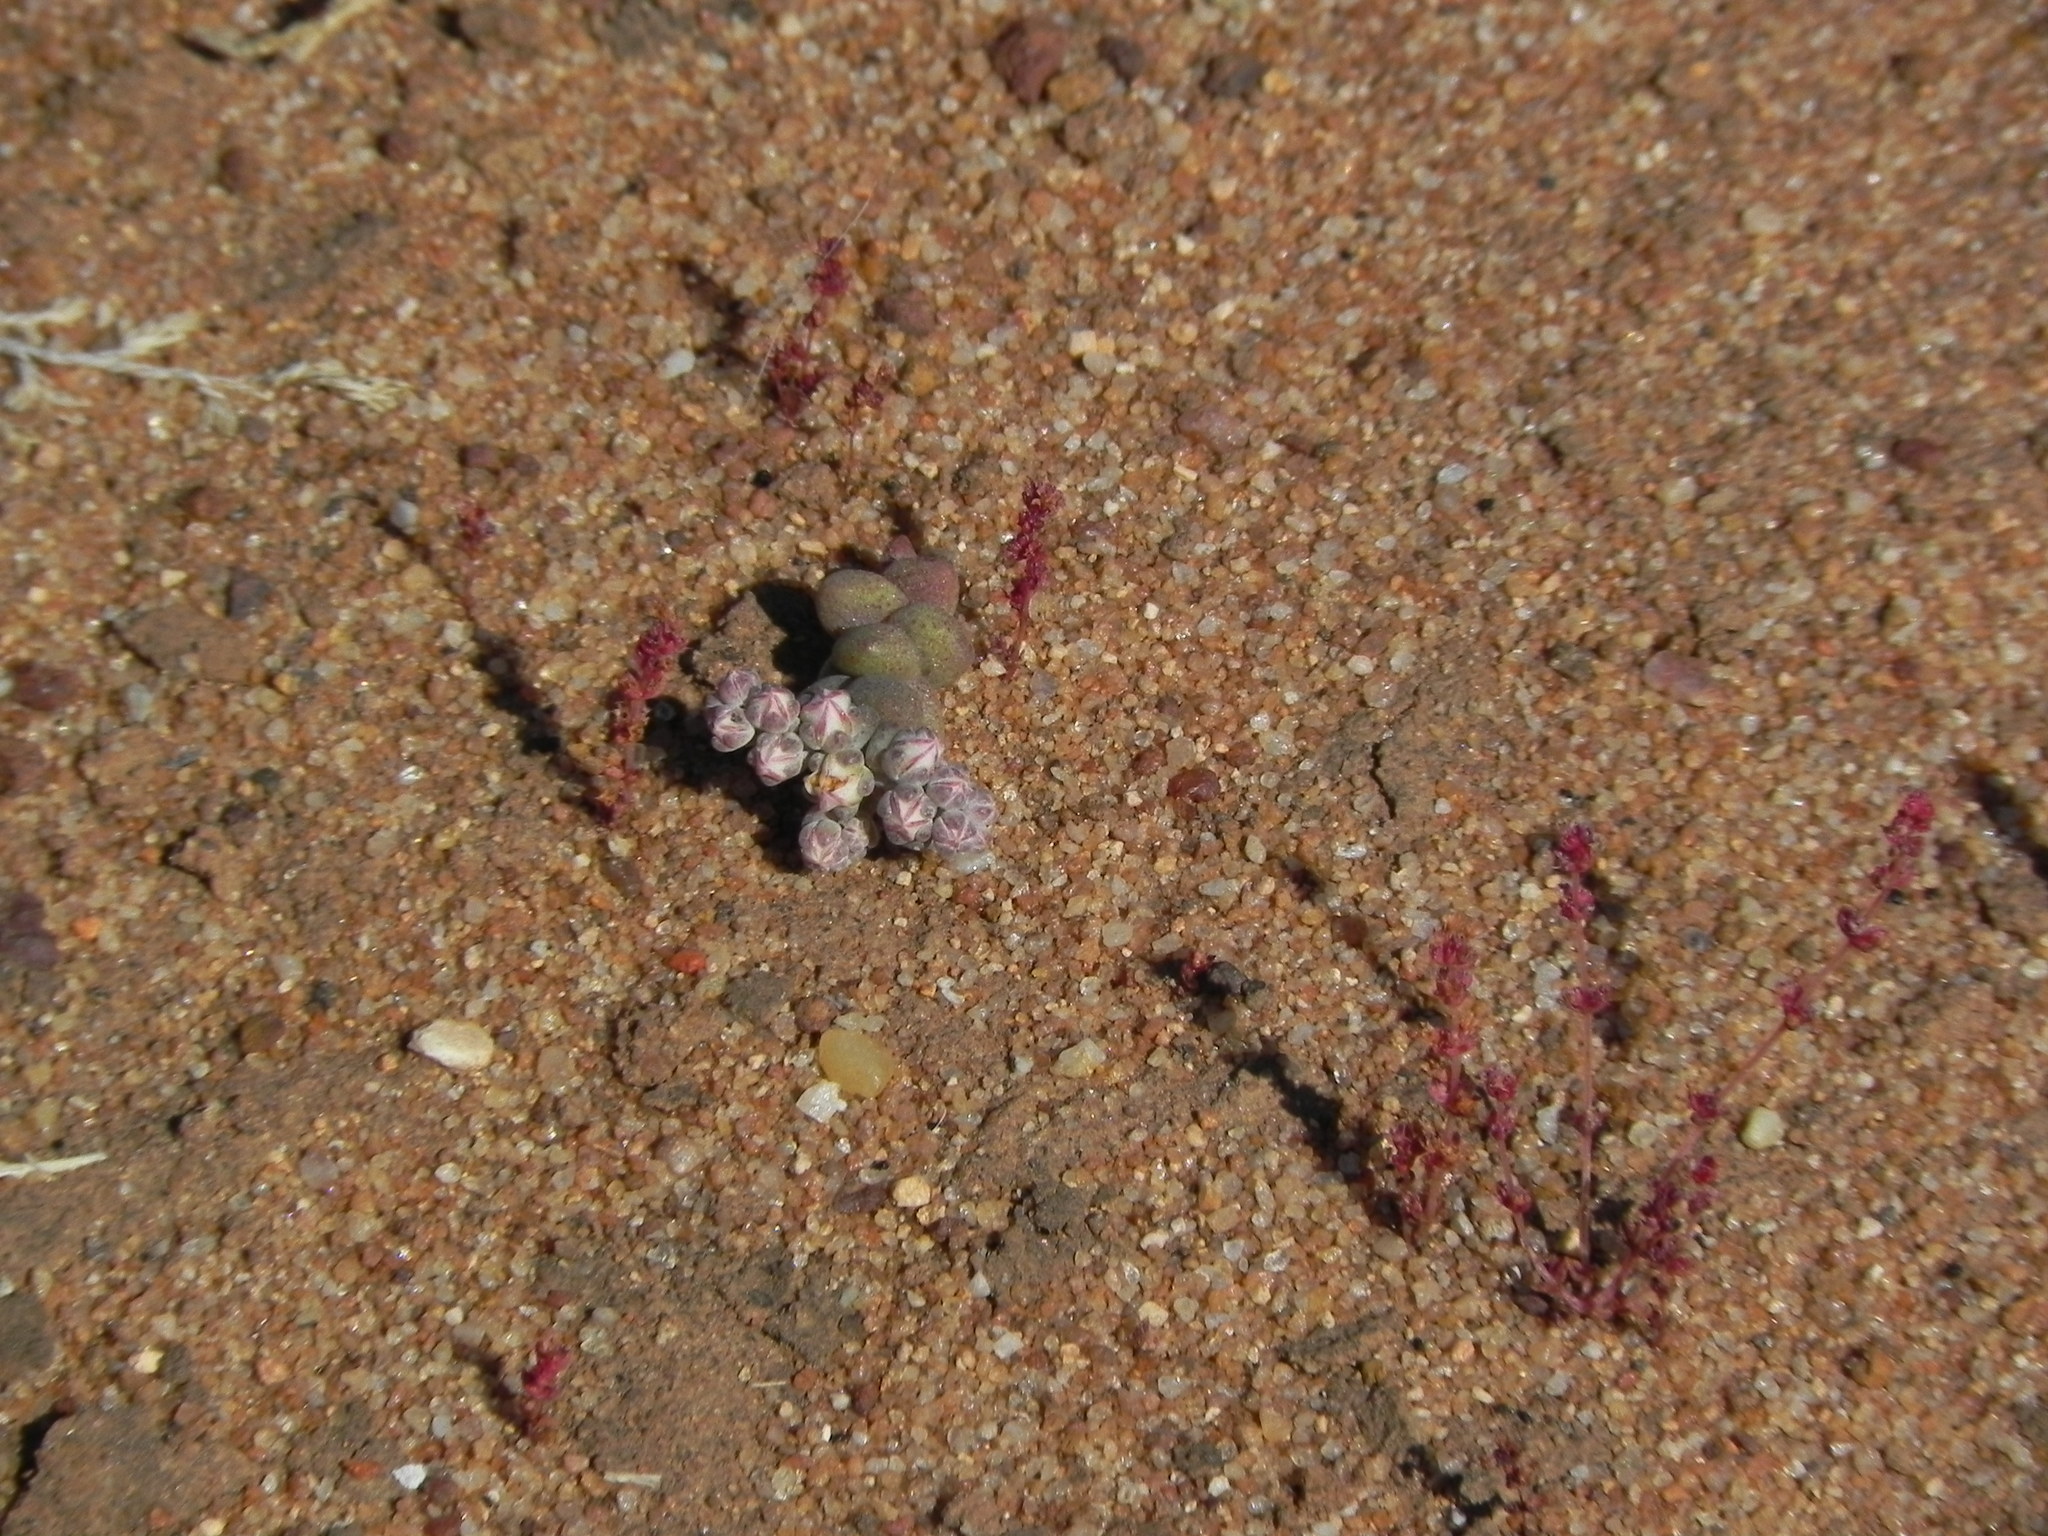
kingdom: Plantae
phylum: Tracheophyta
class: Magnoliopsida
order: Saxifragales
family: Crassulaceae
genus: Dudleya
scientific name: Dudleya blochmaniae
